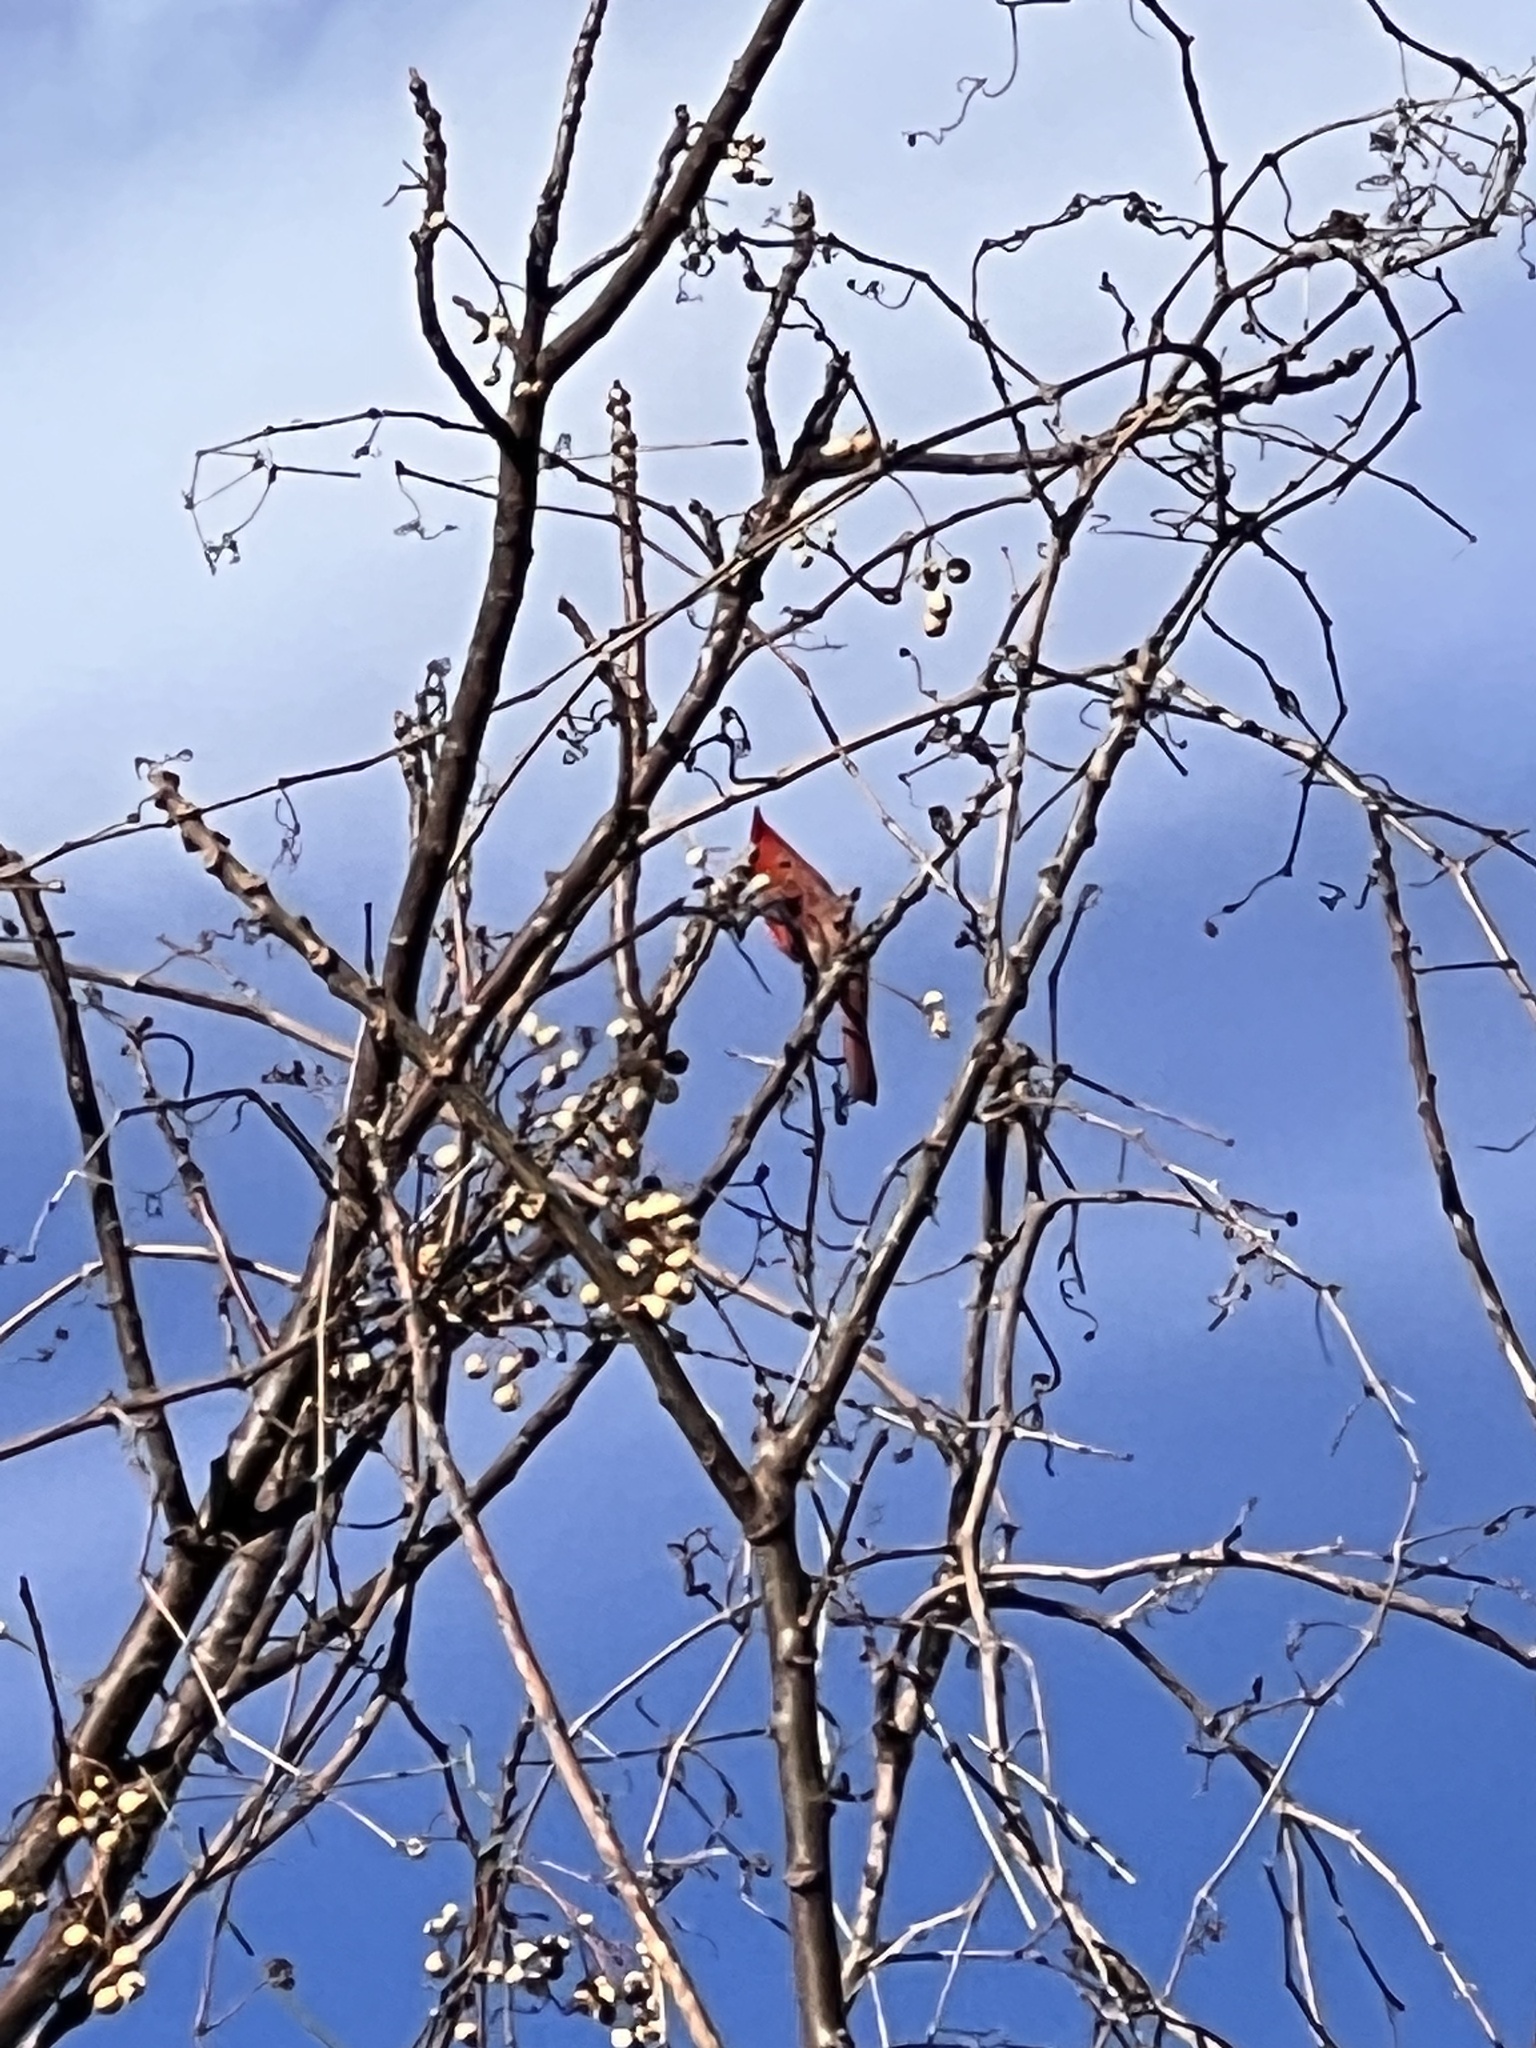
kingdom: Animalia
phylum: Chordata
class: Aves
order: Passeriformes
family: Cardinalidae
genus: Cardinalis
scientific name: Cardinalis cardinalis
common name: Northern cardinal
